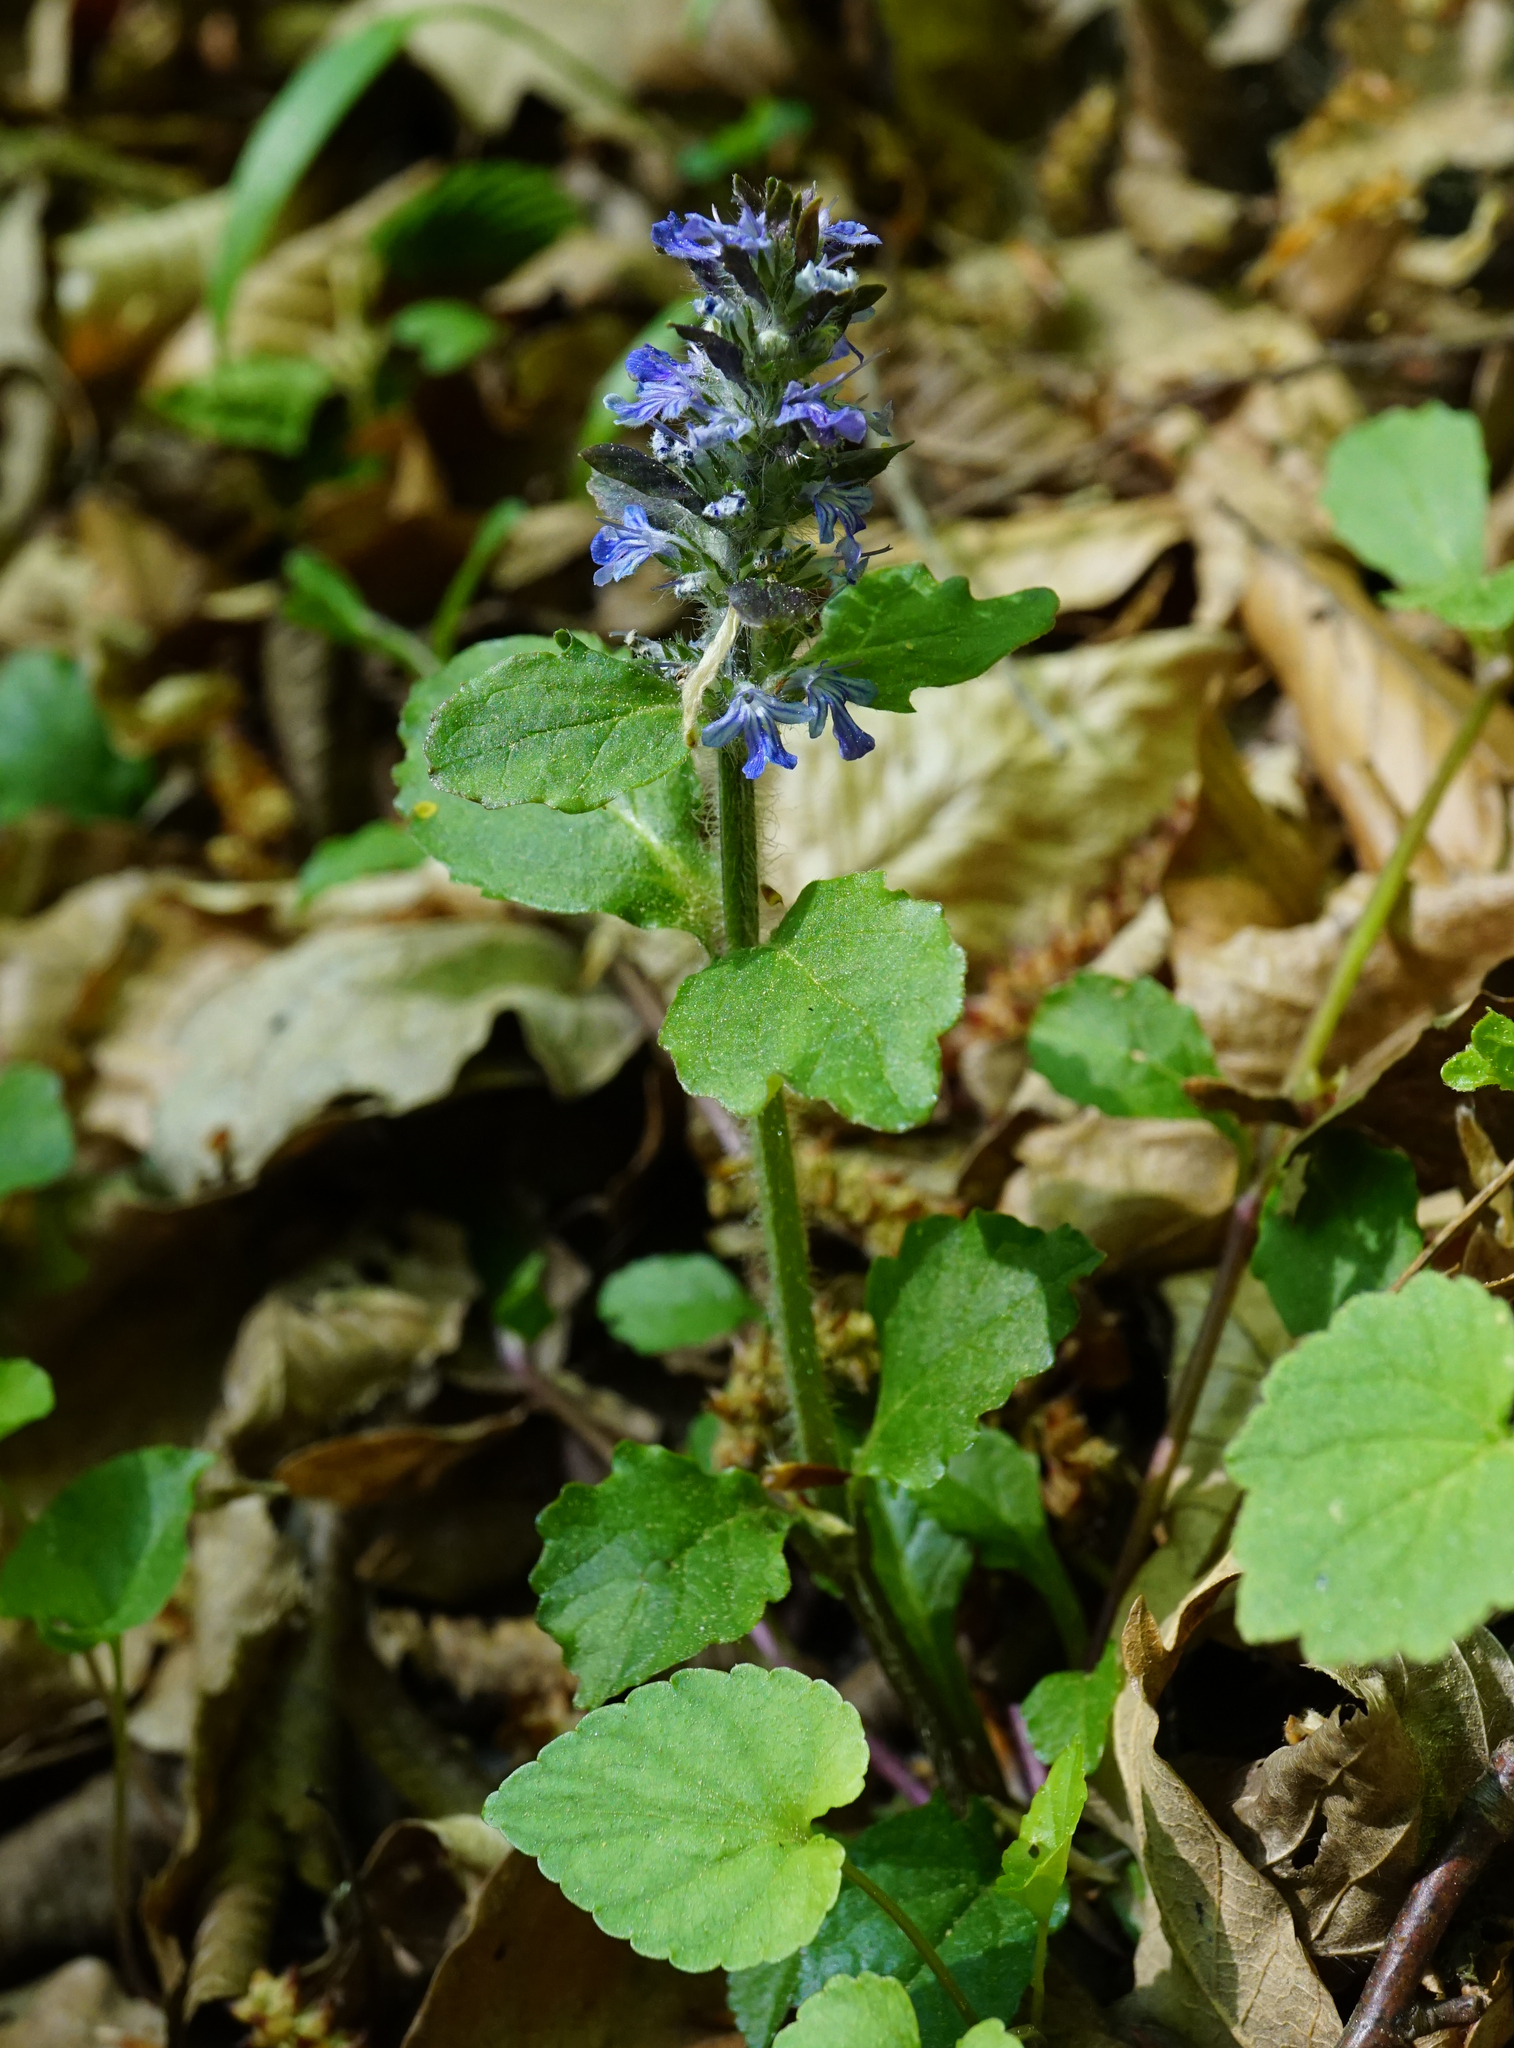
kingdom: Plantae
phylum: Tracheophyta
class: Magnoliopsida
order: Lamiales
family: Lamiaceae
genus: Ajuga
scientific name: Ajuga reptans
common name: Bugle
